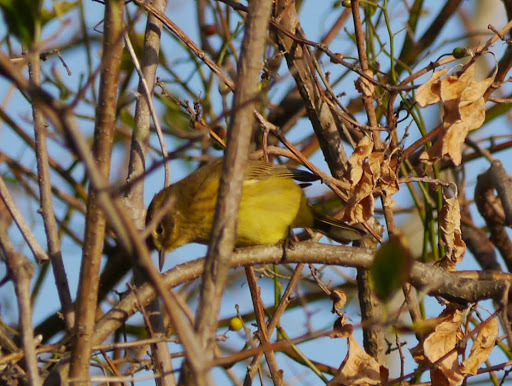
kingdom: Animalia
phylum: Chordata
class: Aves
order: Passeriformes
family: Parulidae
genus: Setophaga
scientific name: Setophaga palmarum
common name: Palm warbler
